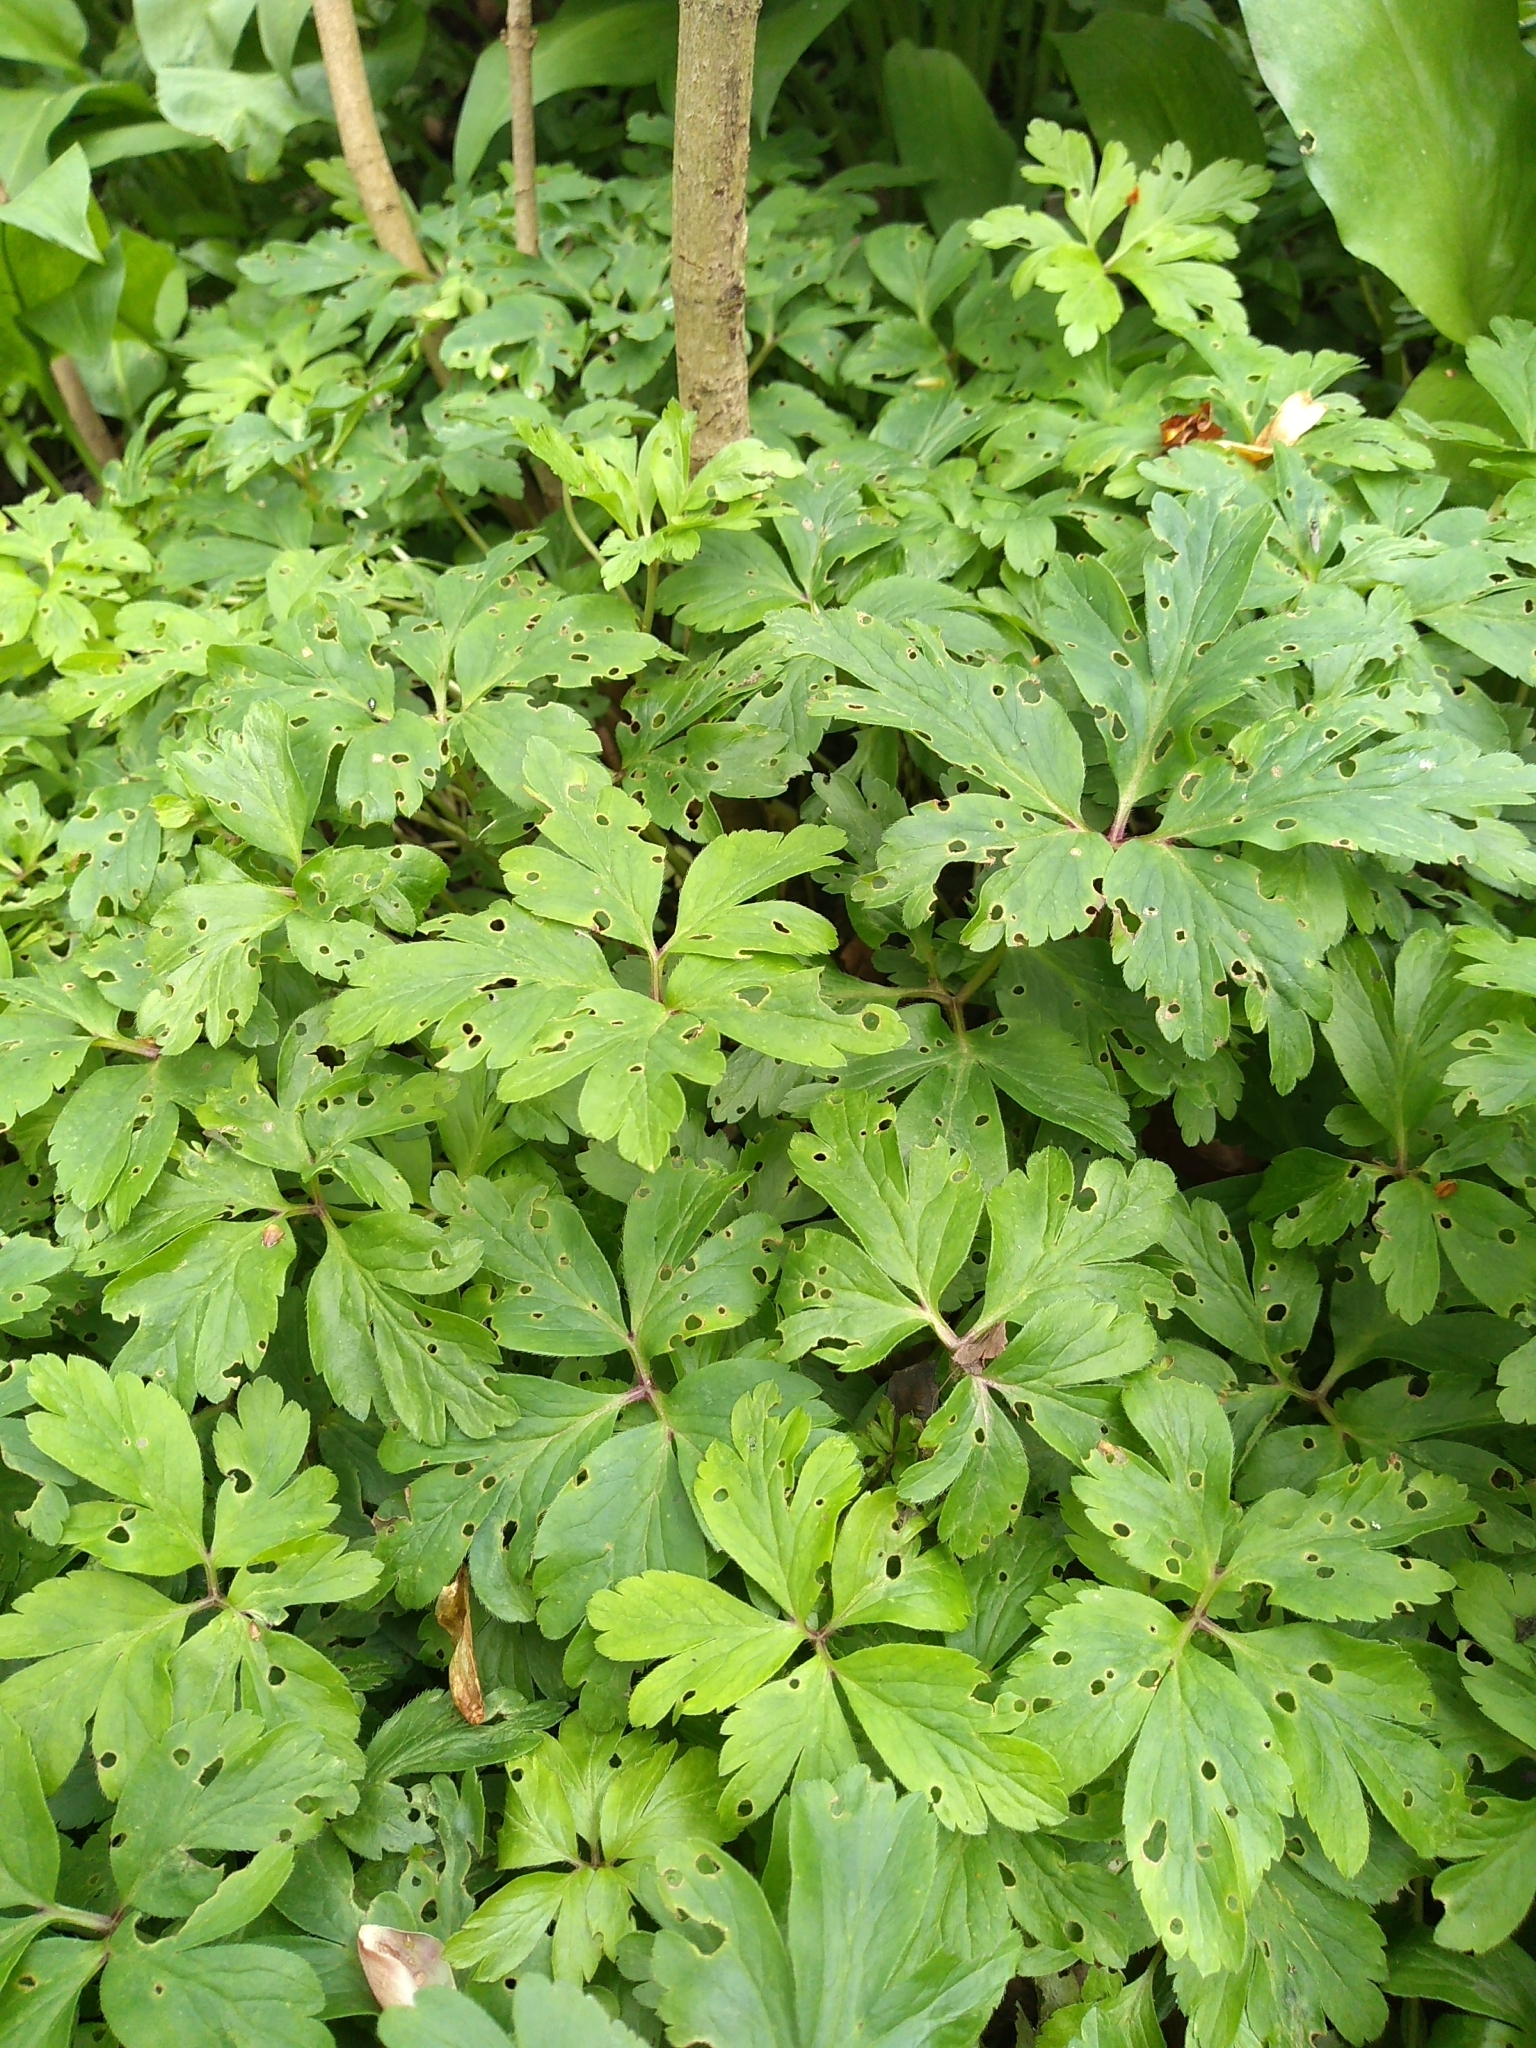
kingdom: Plantae
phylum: Tracheophyta
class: Magnoliopsida
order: Ranunculales
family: Ranunculaceae
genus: Anemone
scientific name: Anemone nemorosa
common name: Wood anemone
